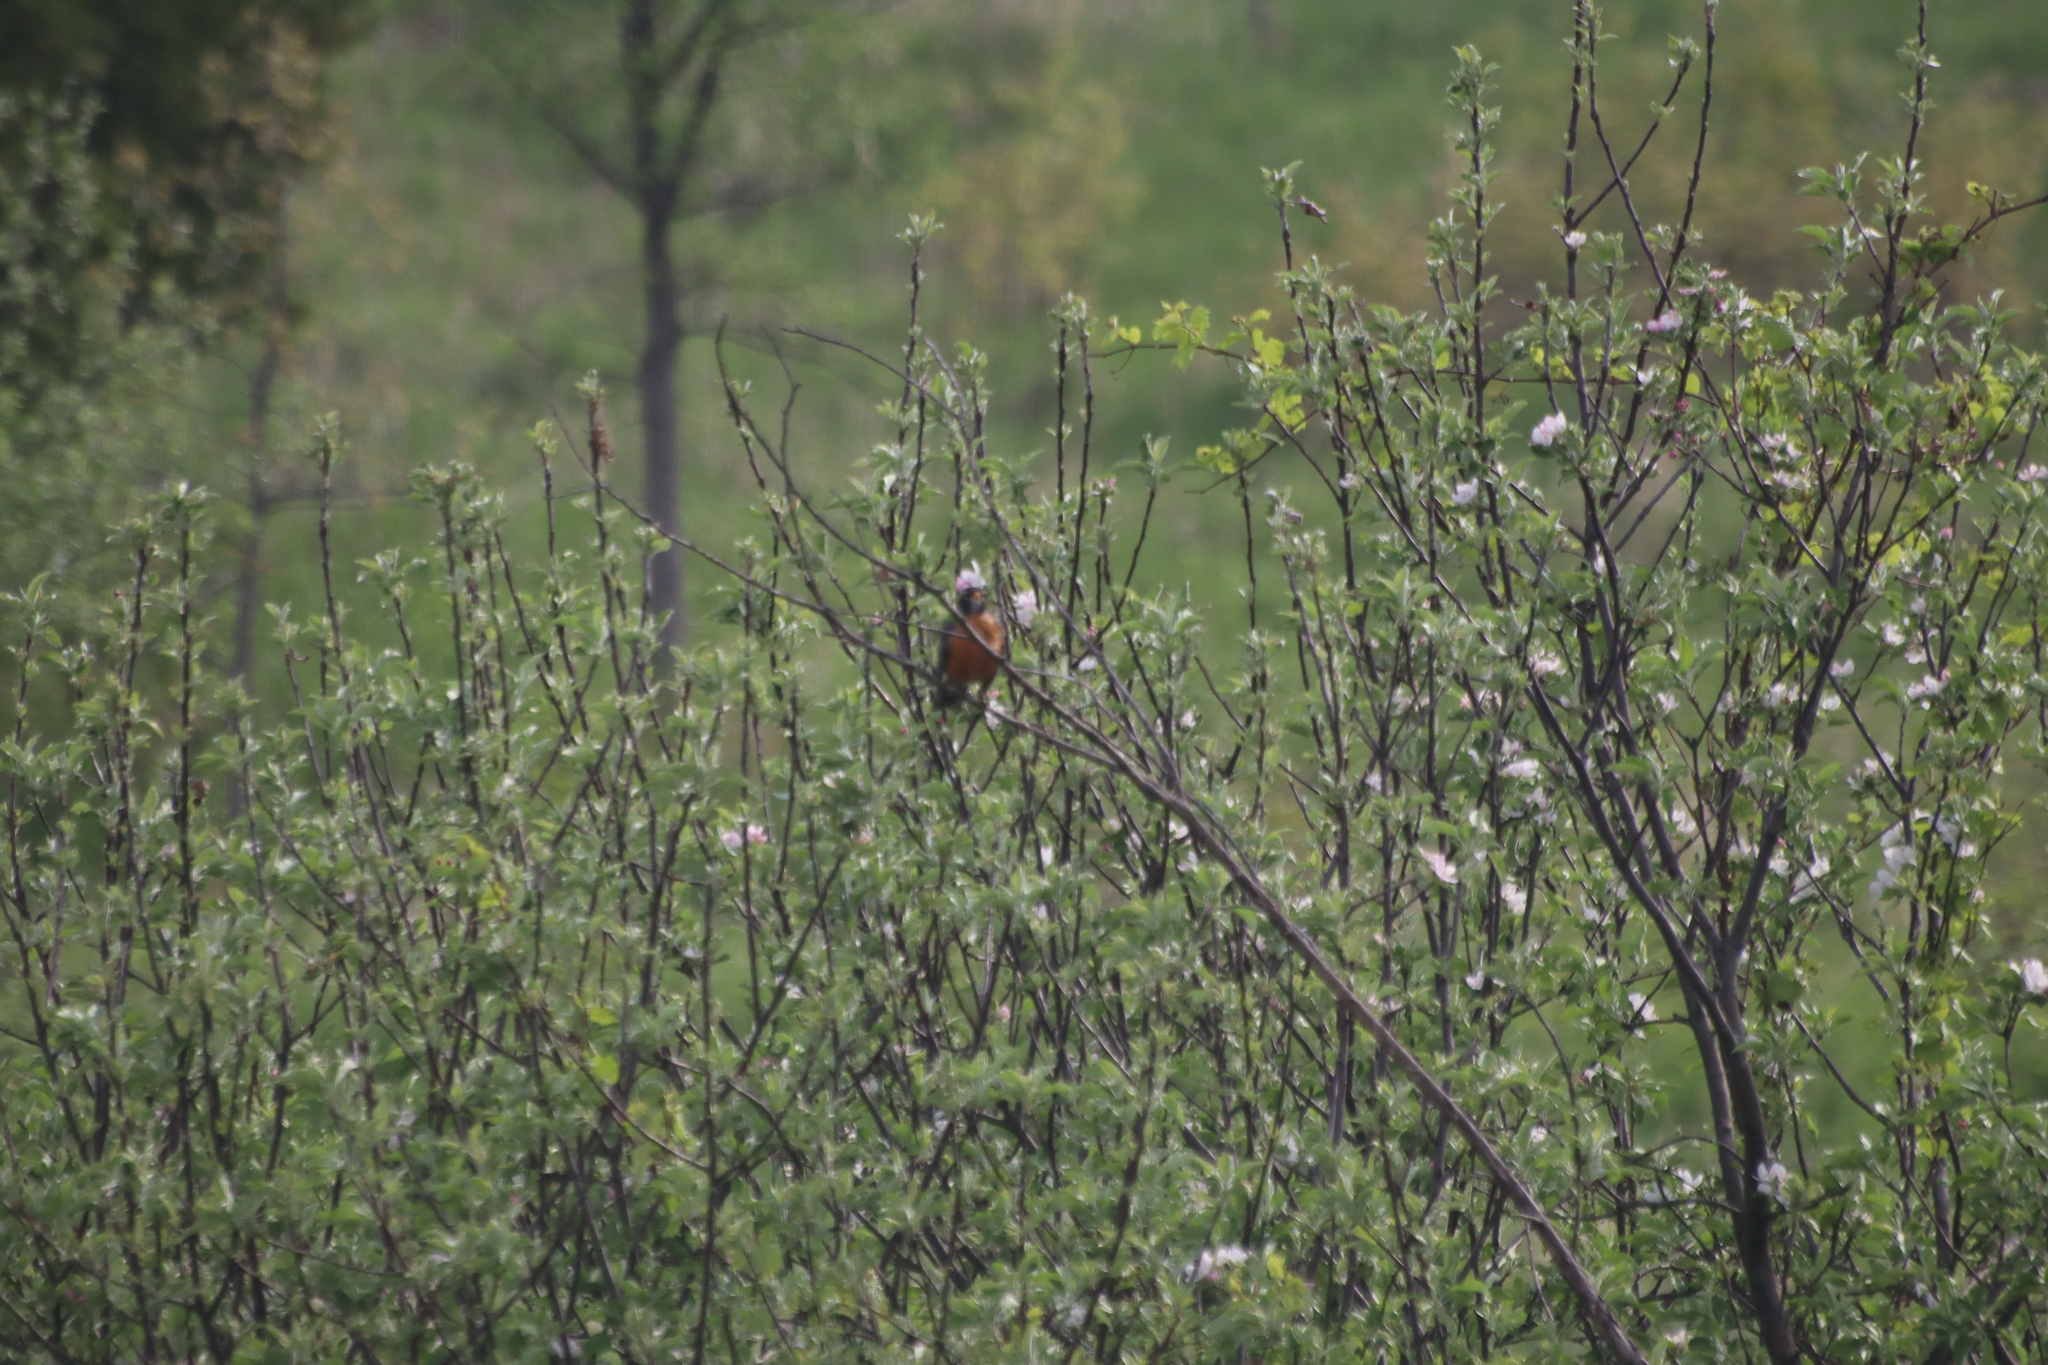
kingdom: Animalia
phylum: Chordata
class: Aves
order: Passeriformes
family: Turdidae
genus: Turdus
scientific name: Turdus migratorius
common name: American robin
